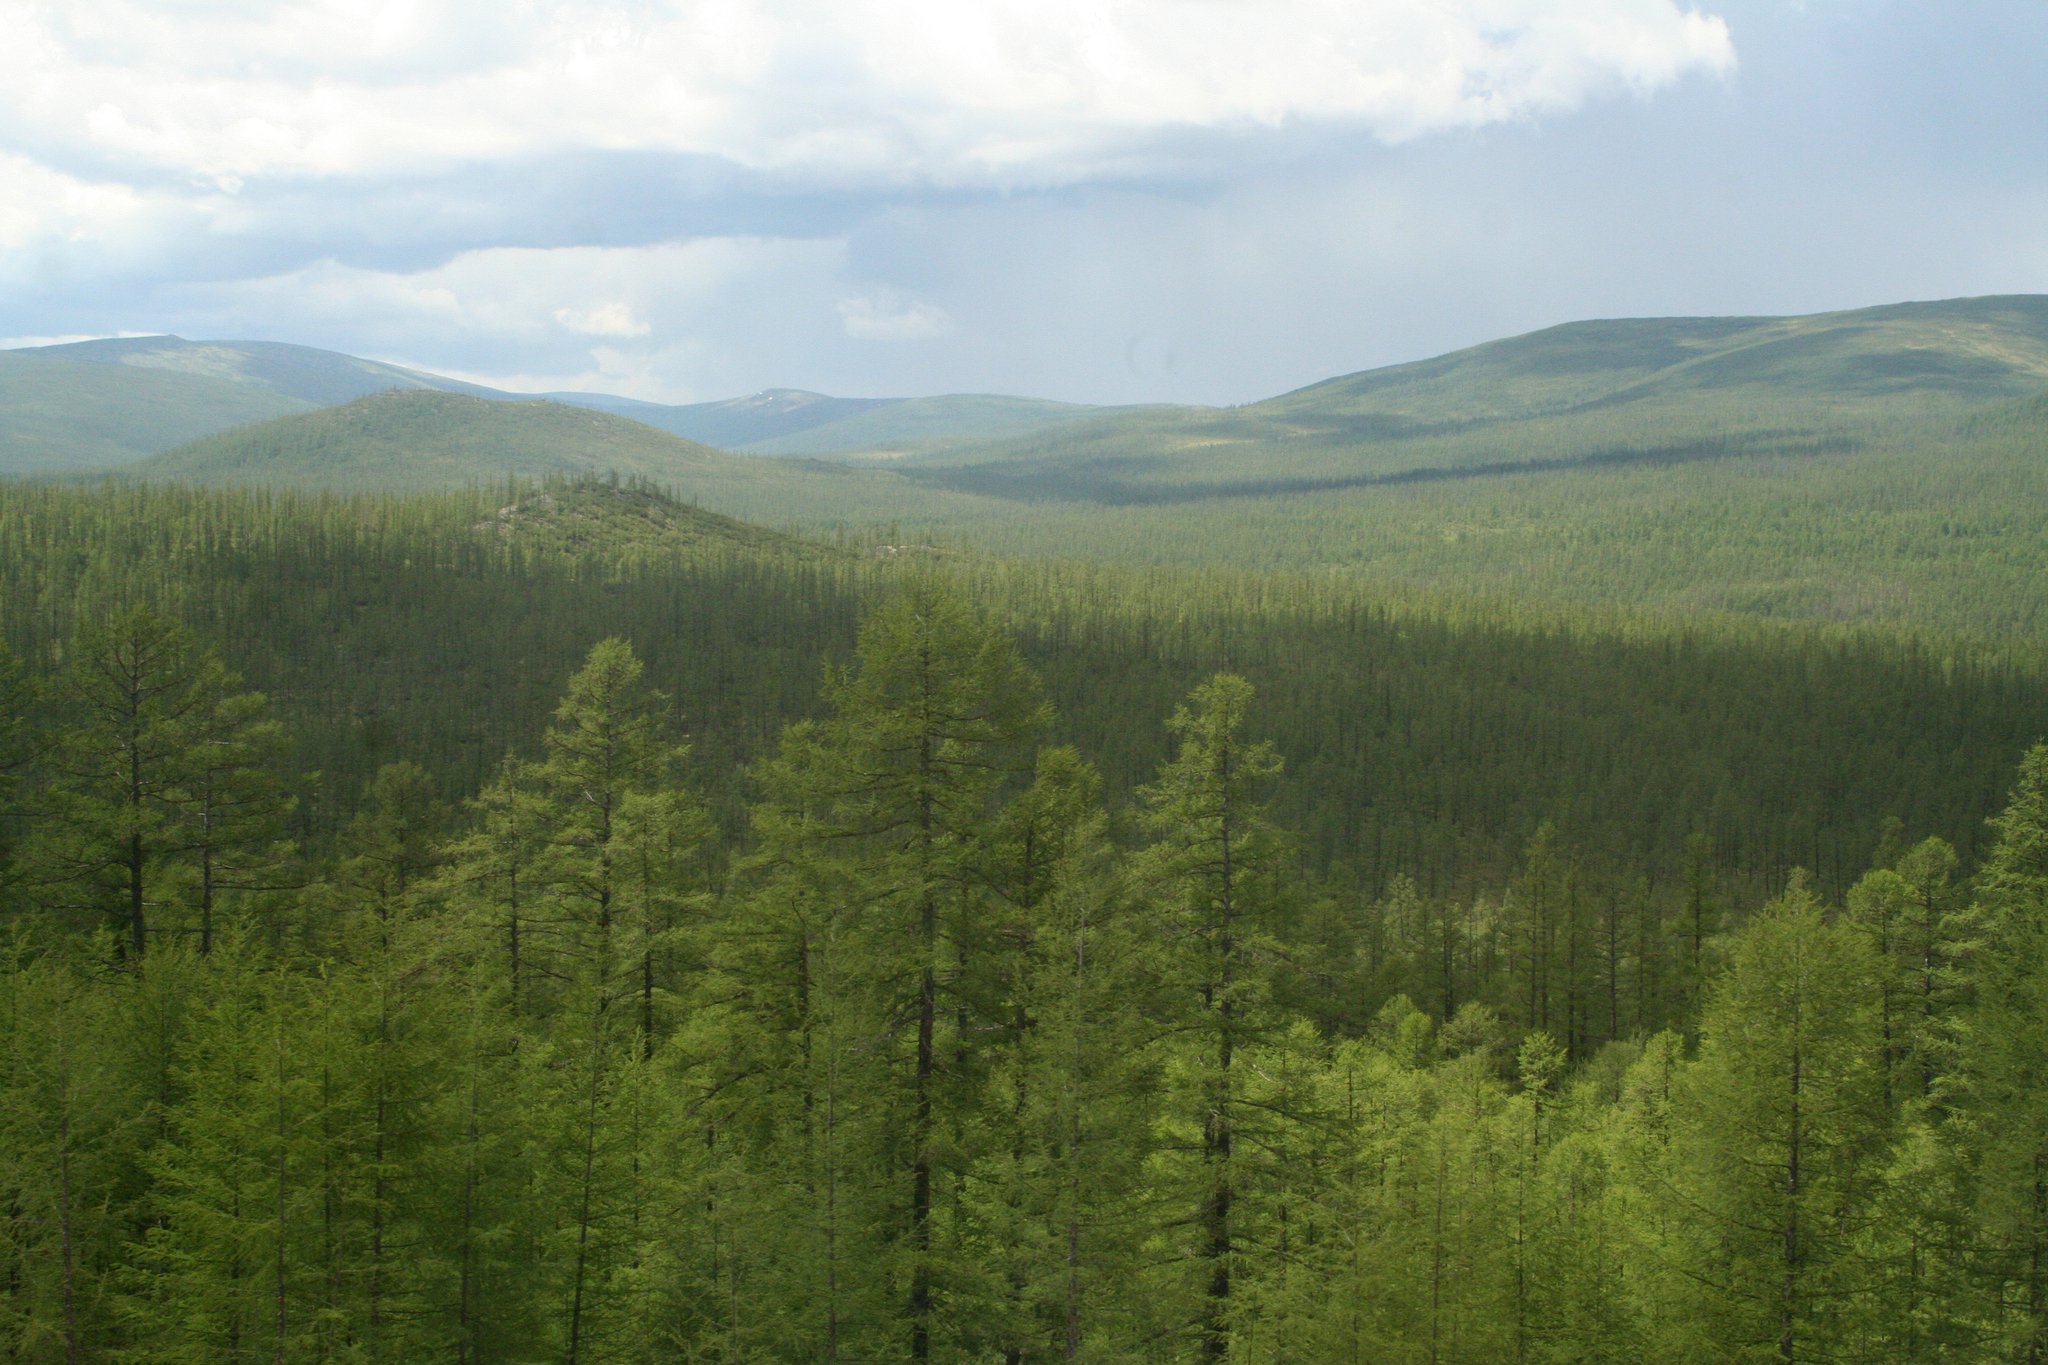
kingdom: Plantae
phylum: Tracheophyta
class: Pinopsida
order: Pinales
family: Pinaceae
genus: Larix
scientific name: Larix gmelinii
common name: Dahurian larch
